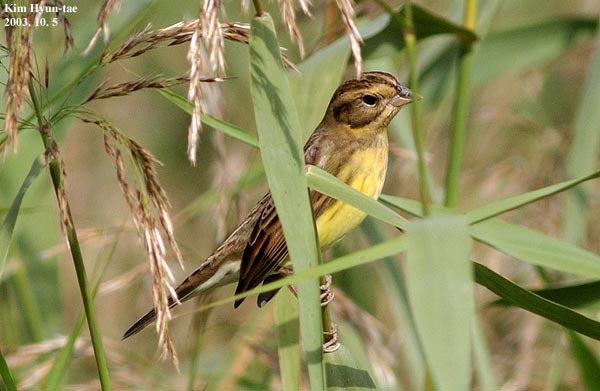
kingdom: Animalia
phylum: Chordata
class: Aves
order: Passeriformes
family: Emberizidae
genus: Emberiza
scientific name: Emberiza aureola
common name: Yellow-breasted bunting
